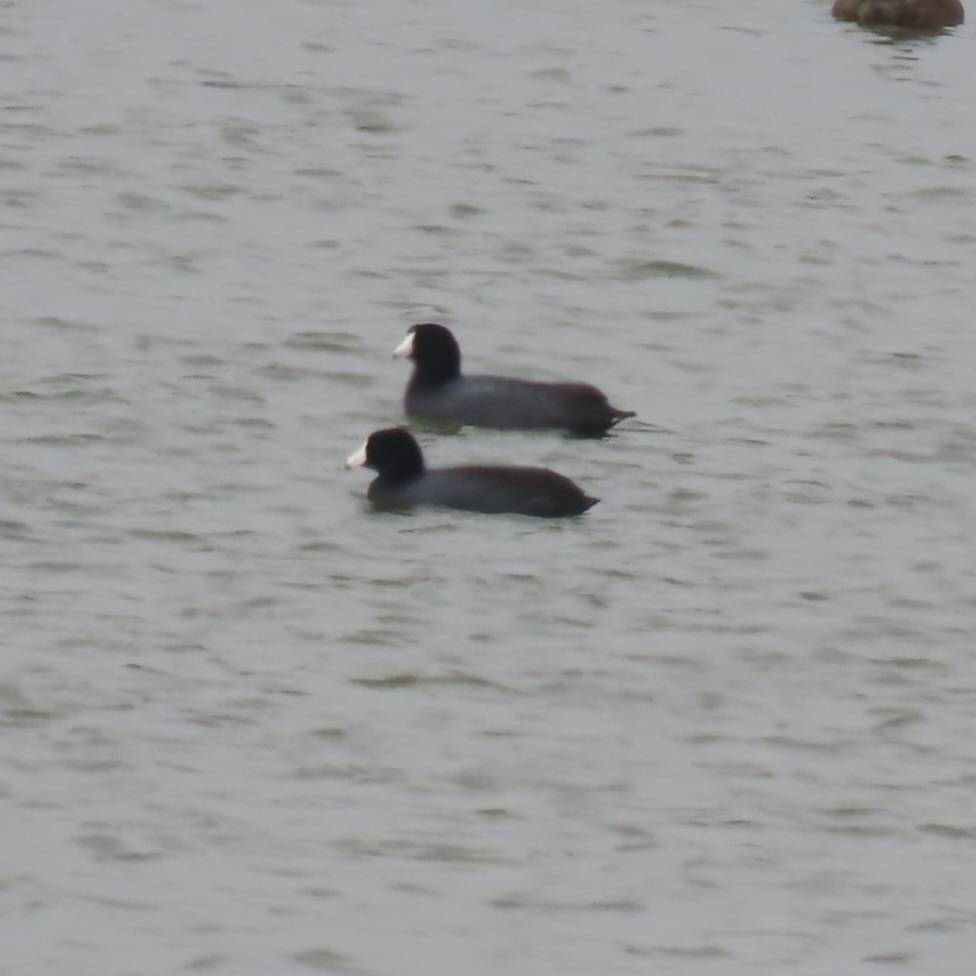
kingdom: Animalia
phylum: Chordata
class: Aves
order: Gruiformes
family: Rallidae
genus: Fulica
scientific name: Fulica americana
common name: American coot
